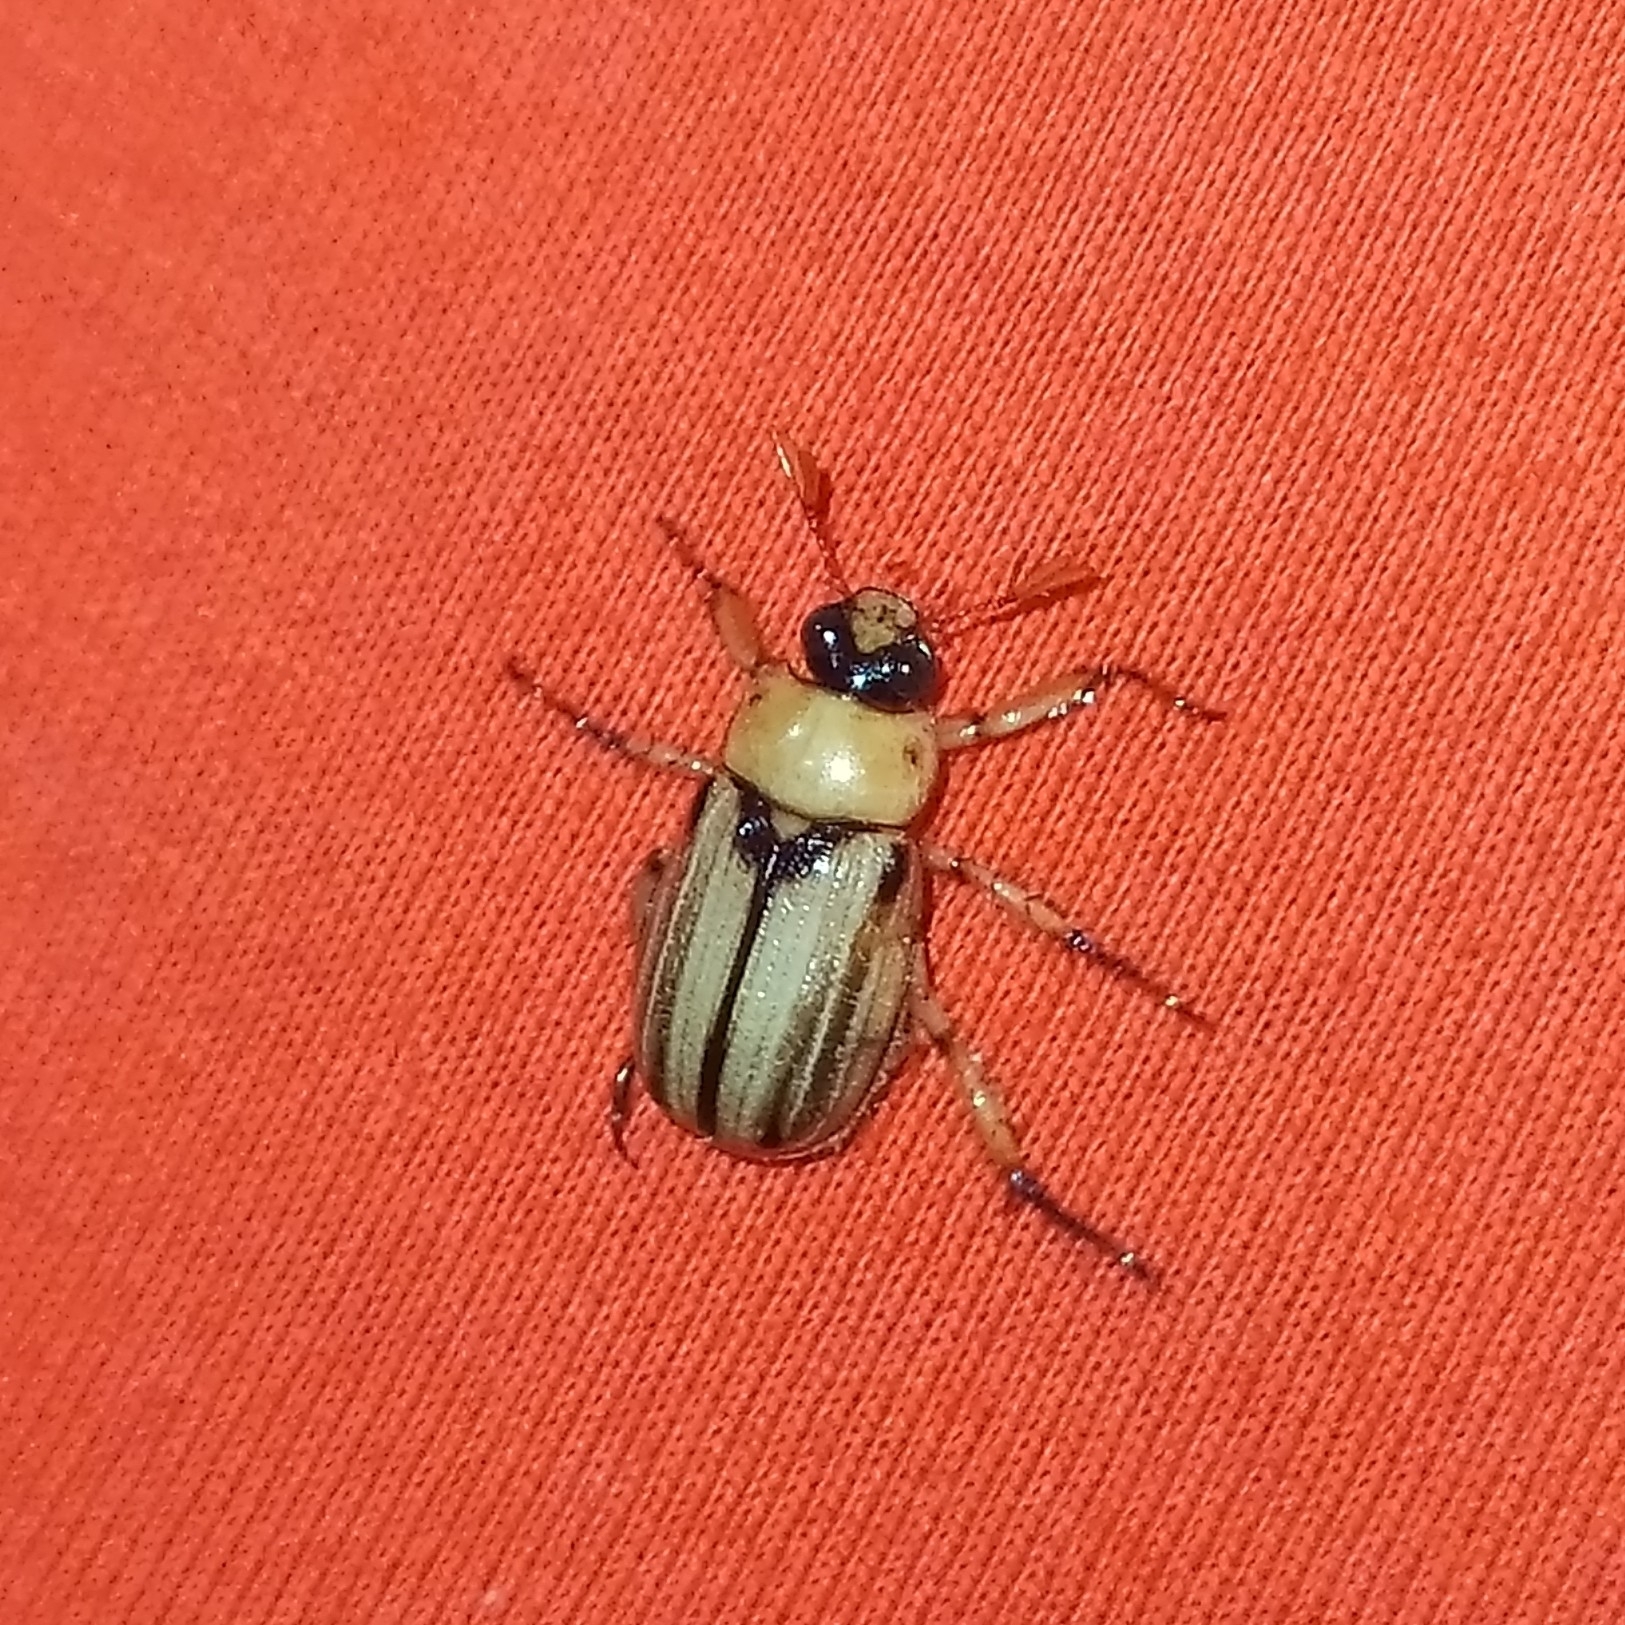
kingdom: Animalia
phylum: Arthropoda
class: Insecta
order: Coleoptera
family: Scarabaeidae
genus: Anomala
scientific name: Anomala communis
